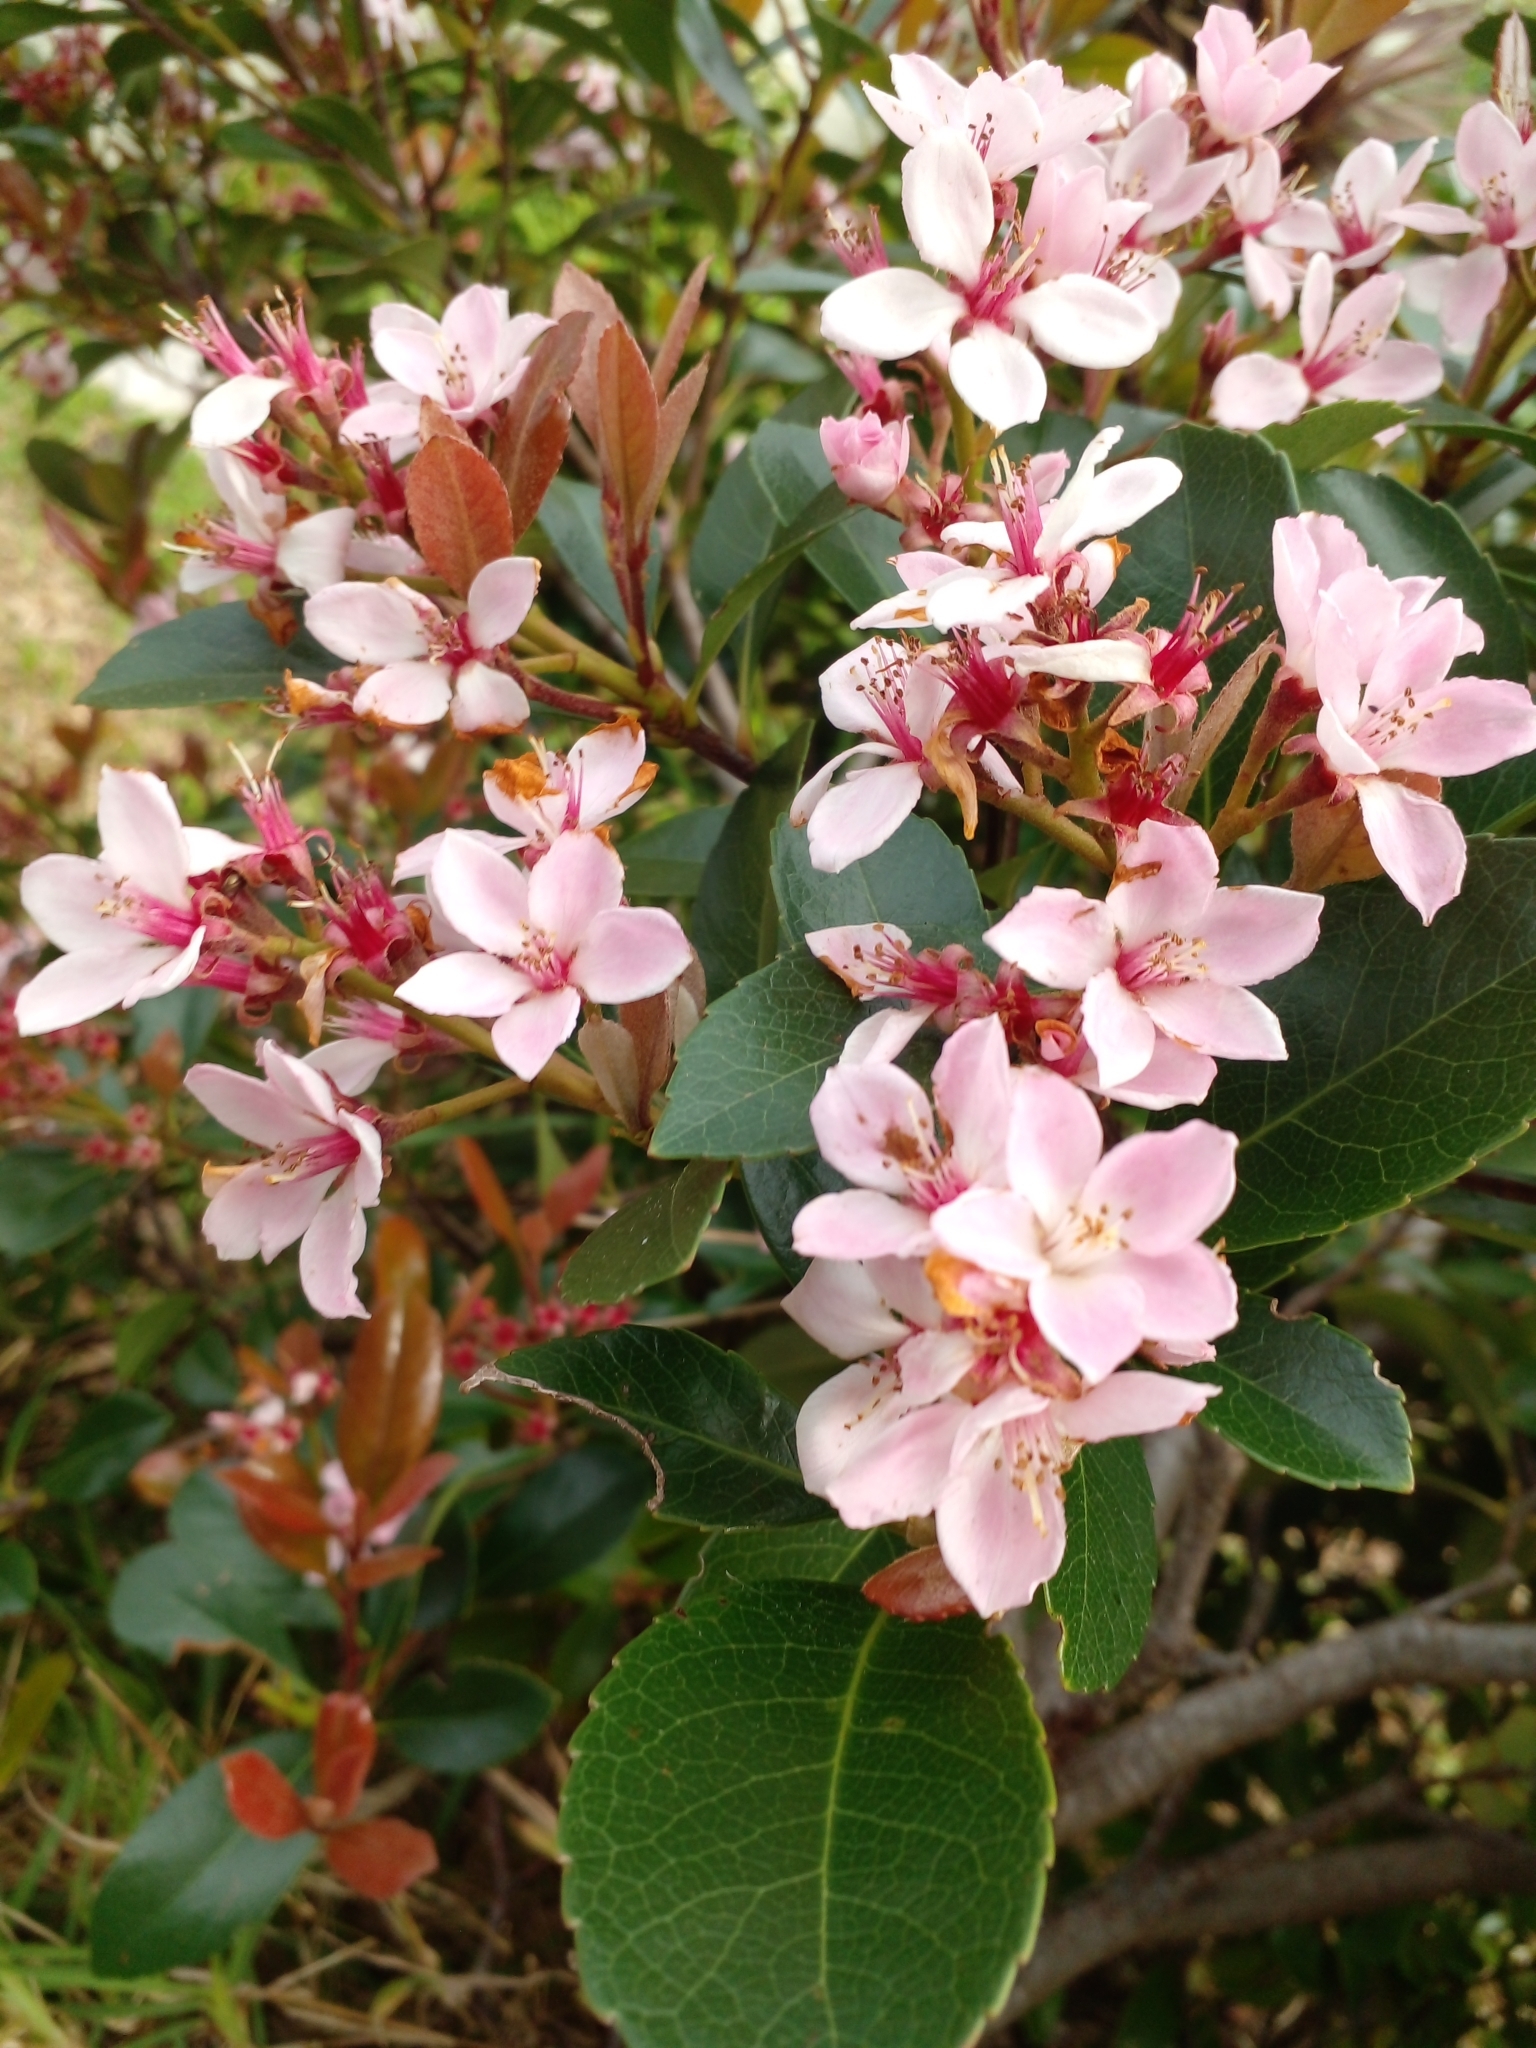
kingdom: Plantae
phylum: Tracheophyta
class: Magnoliopsida
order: Rosales
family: Rosaceae
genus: Rhaphiolepis
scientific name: Rhaphiolepis indica
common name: India-hawthorn
